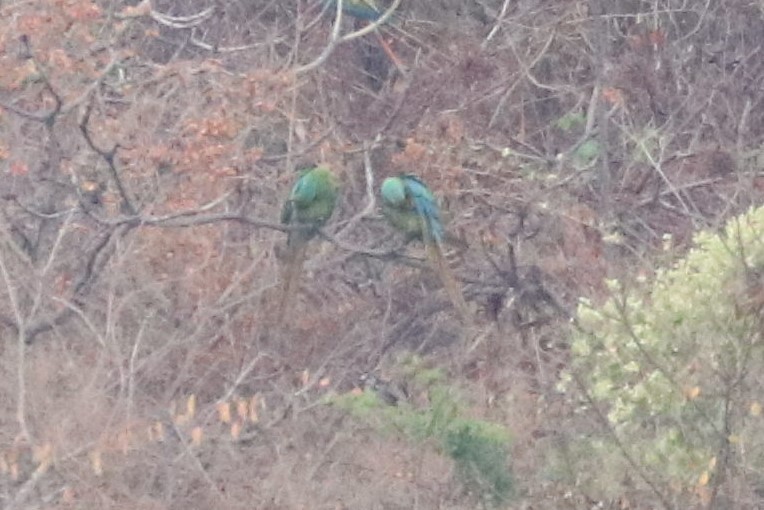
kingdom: Animalia
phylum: Chordata
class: Aves
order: Psittaciformes
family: Psittacidae
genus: Ara
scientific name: Ara militaris
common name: Military macaw
